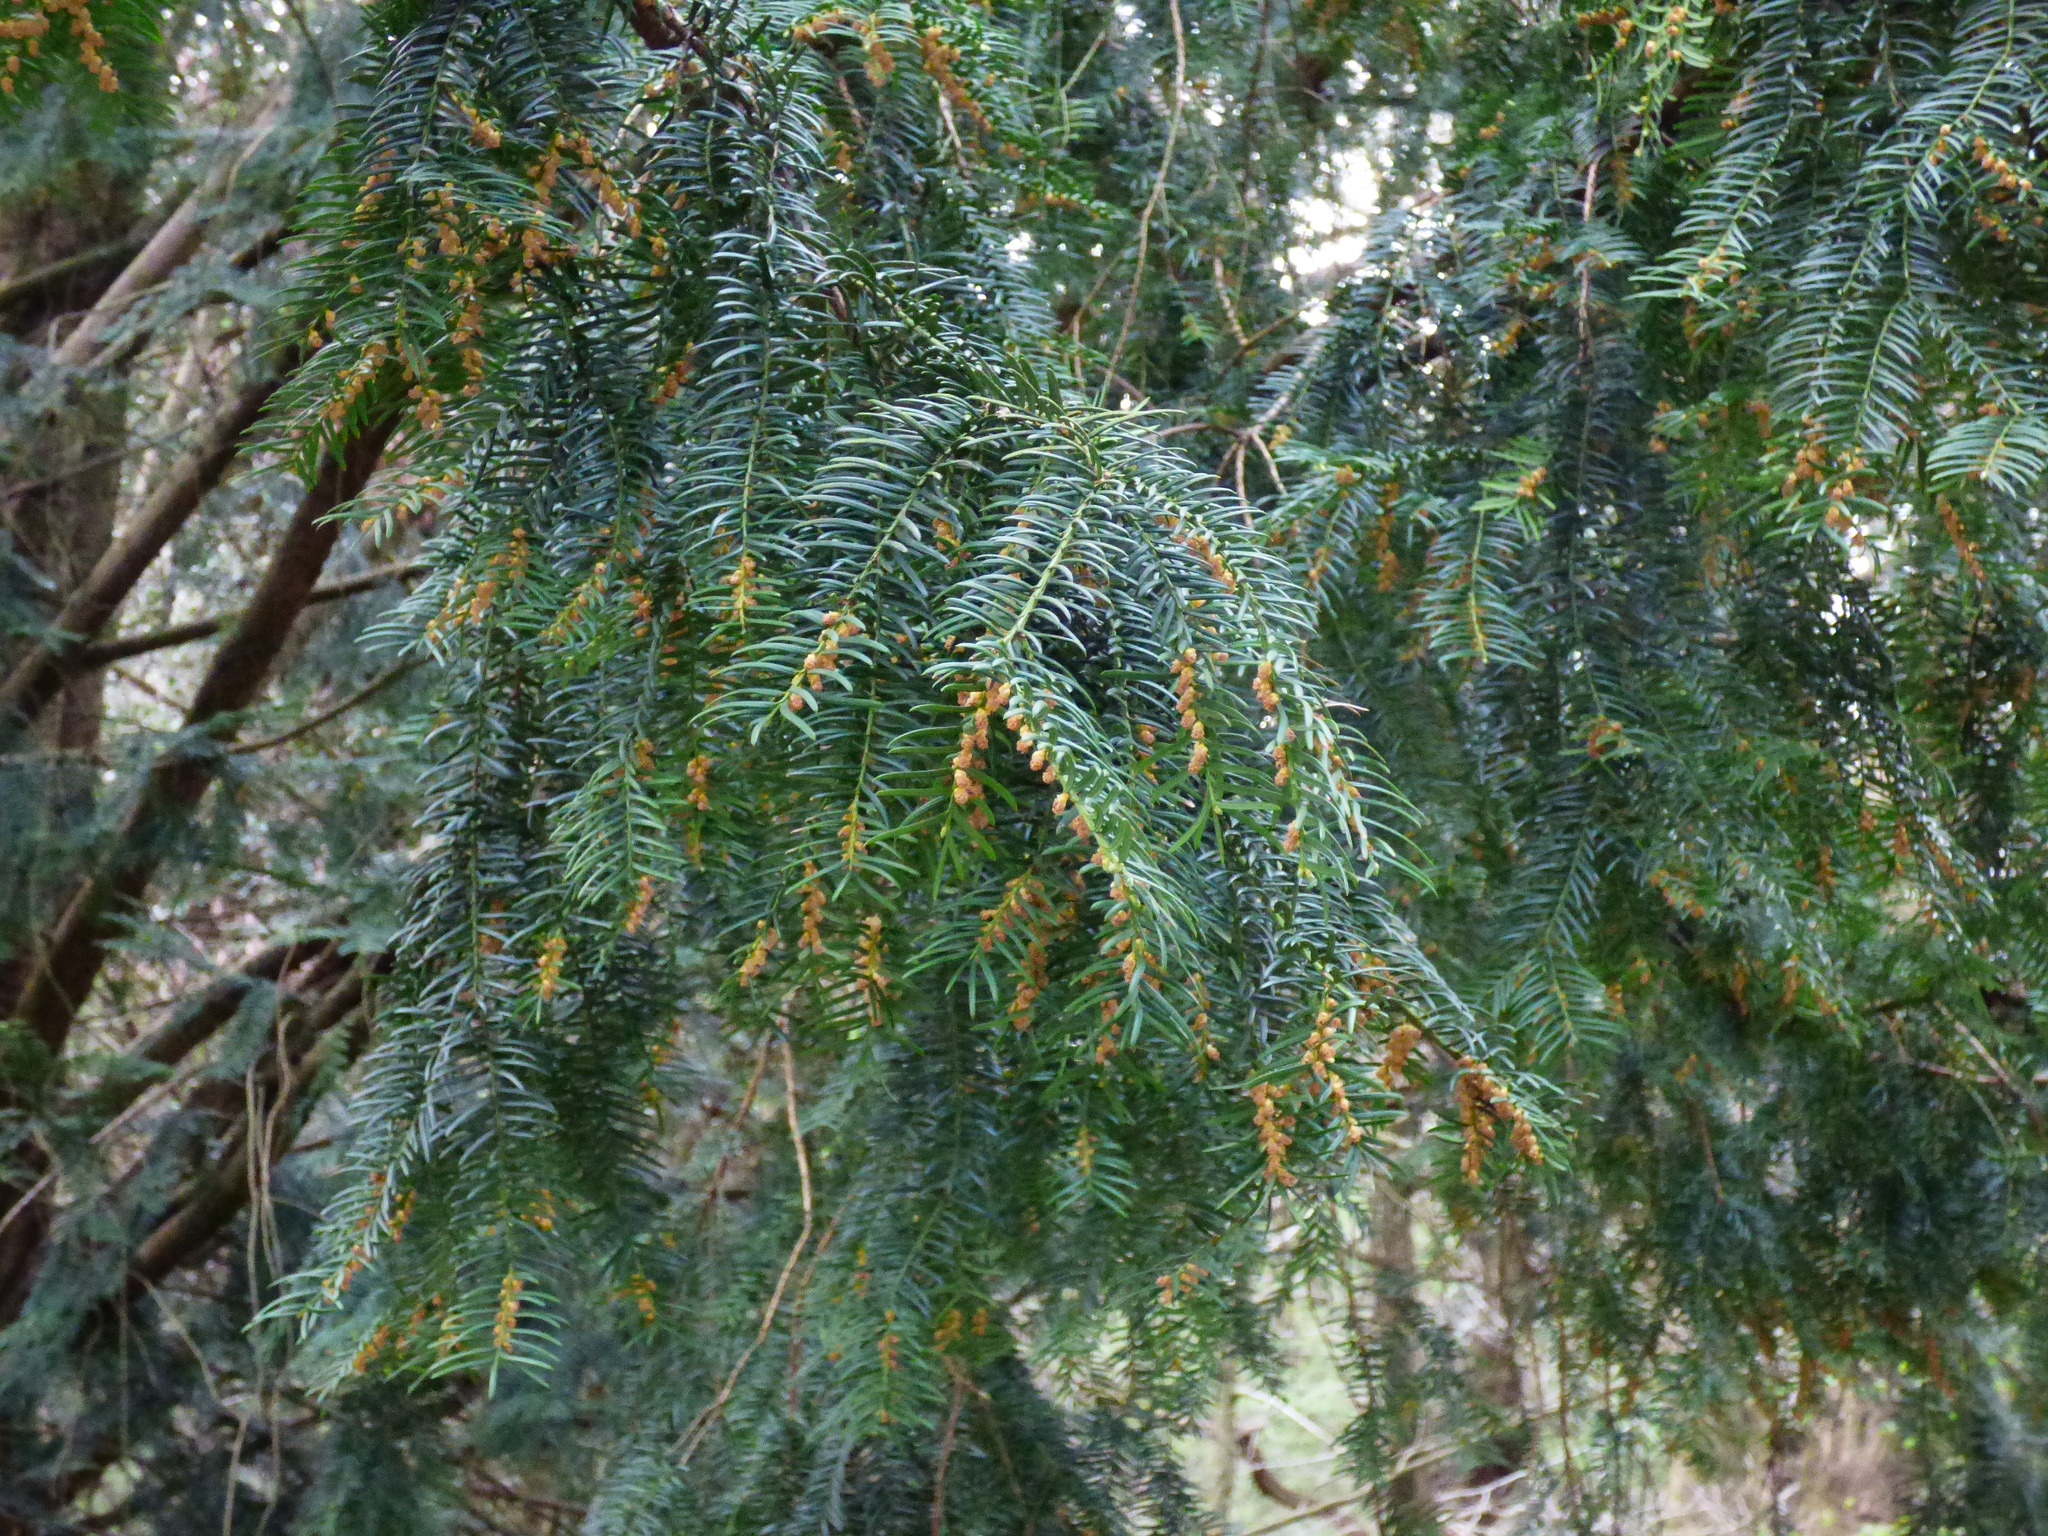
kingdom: Plantae
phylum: Tracheophyta
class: Pinopsida
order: Pinales
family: Taxaceae
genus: Taxus
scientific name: Taxus baccata
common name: Yew
